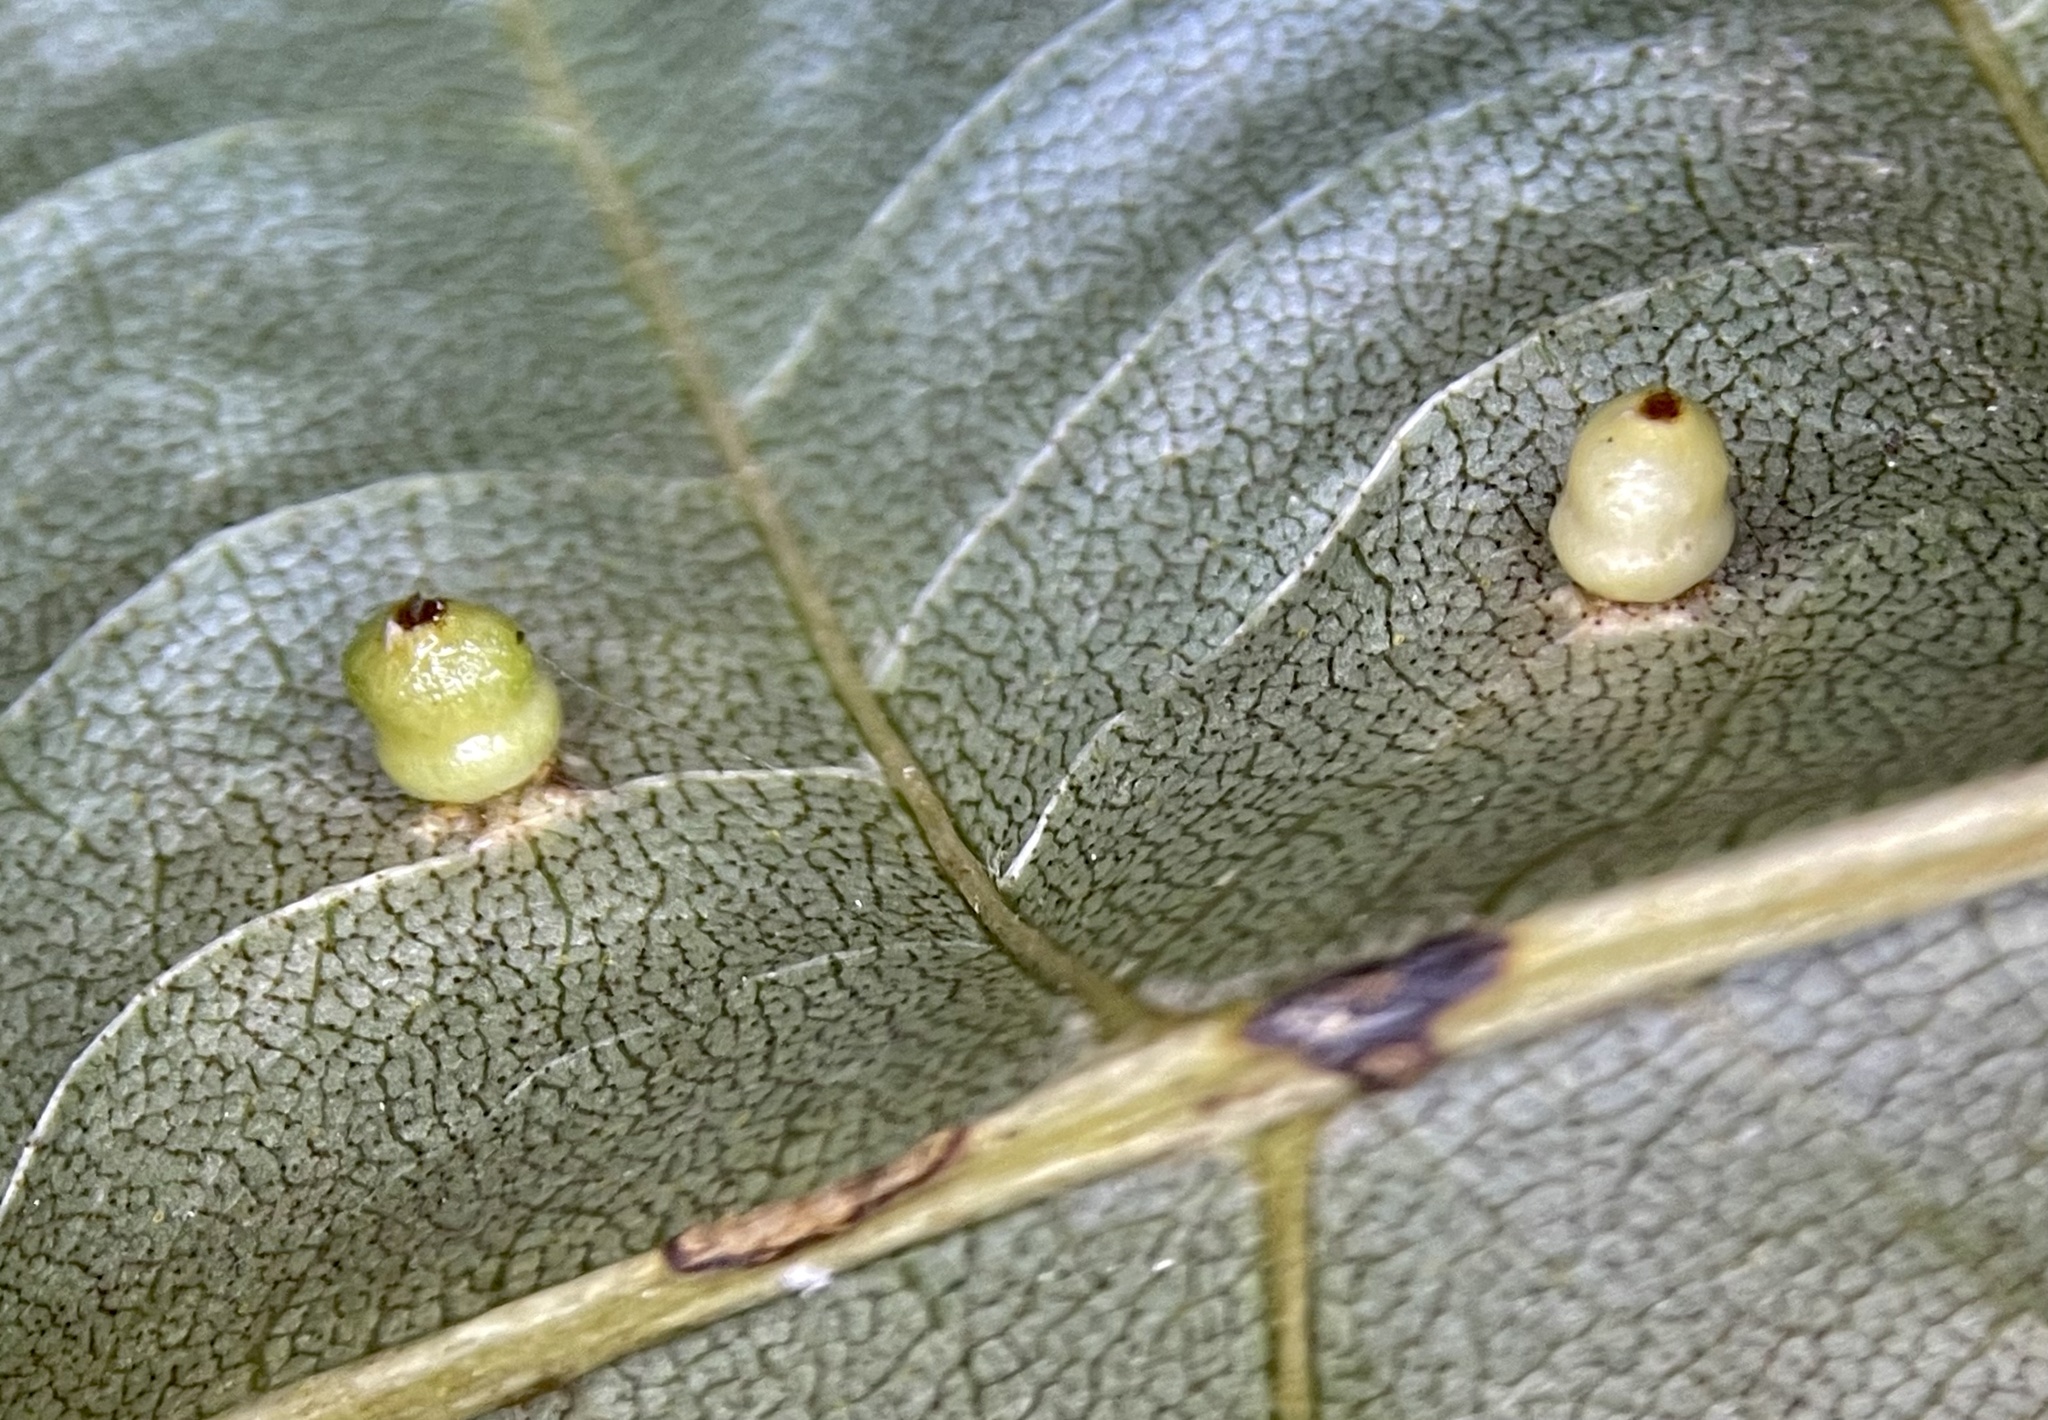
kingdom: Animalia
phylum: Arthropoda
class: Insecta
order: Diptera
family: Cecidomyiidae
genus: Caryomyia
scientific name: Caryomyia caryae
